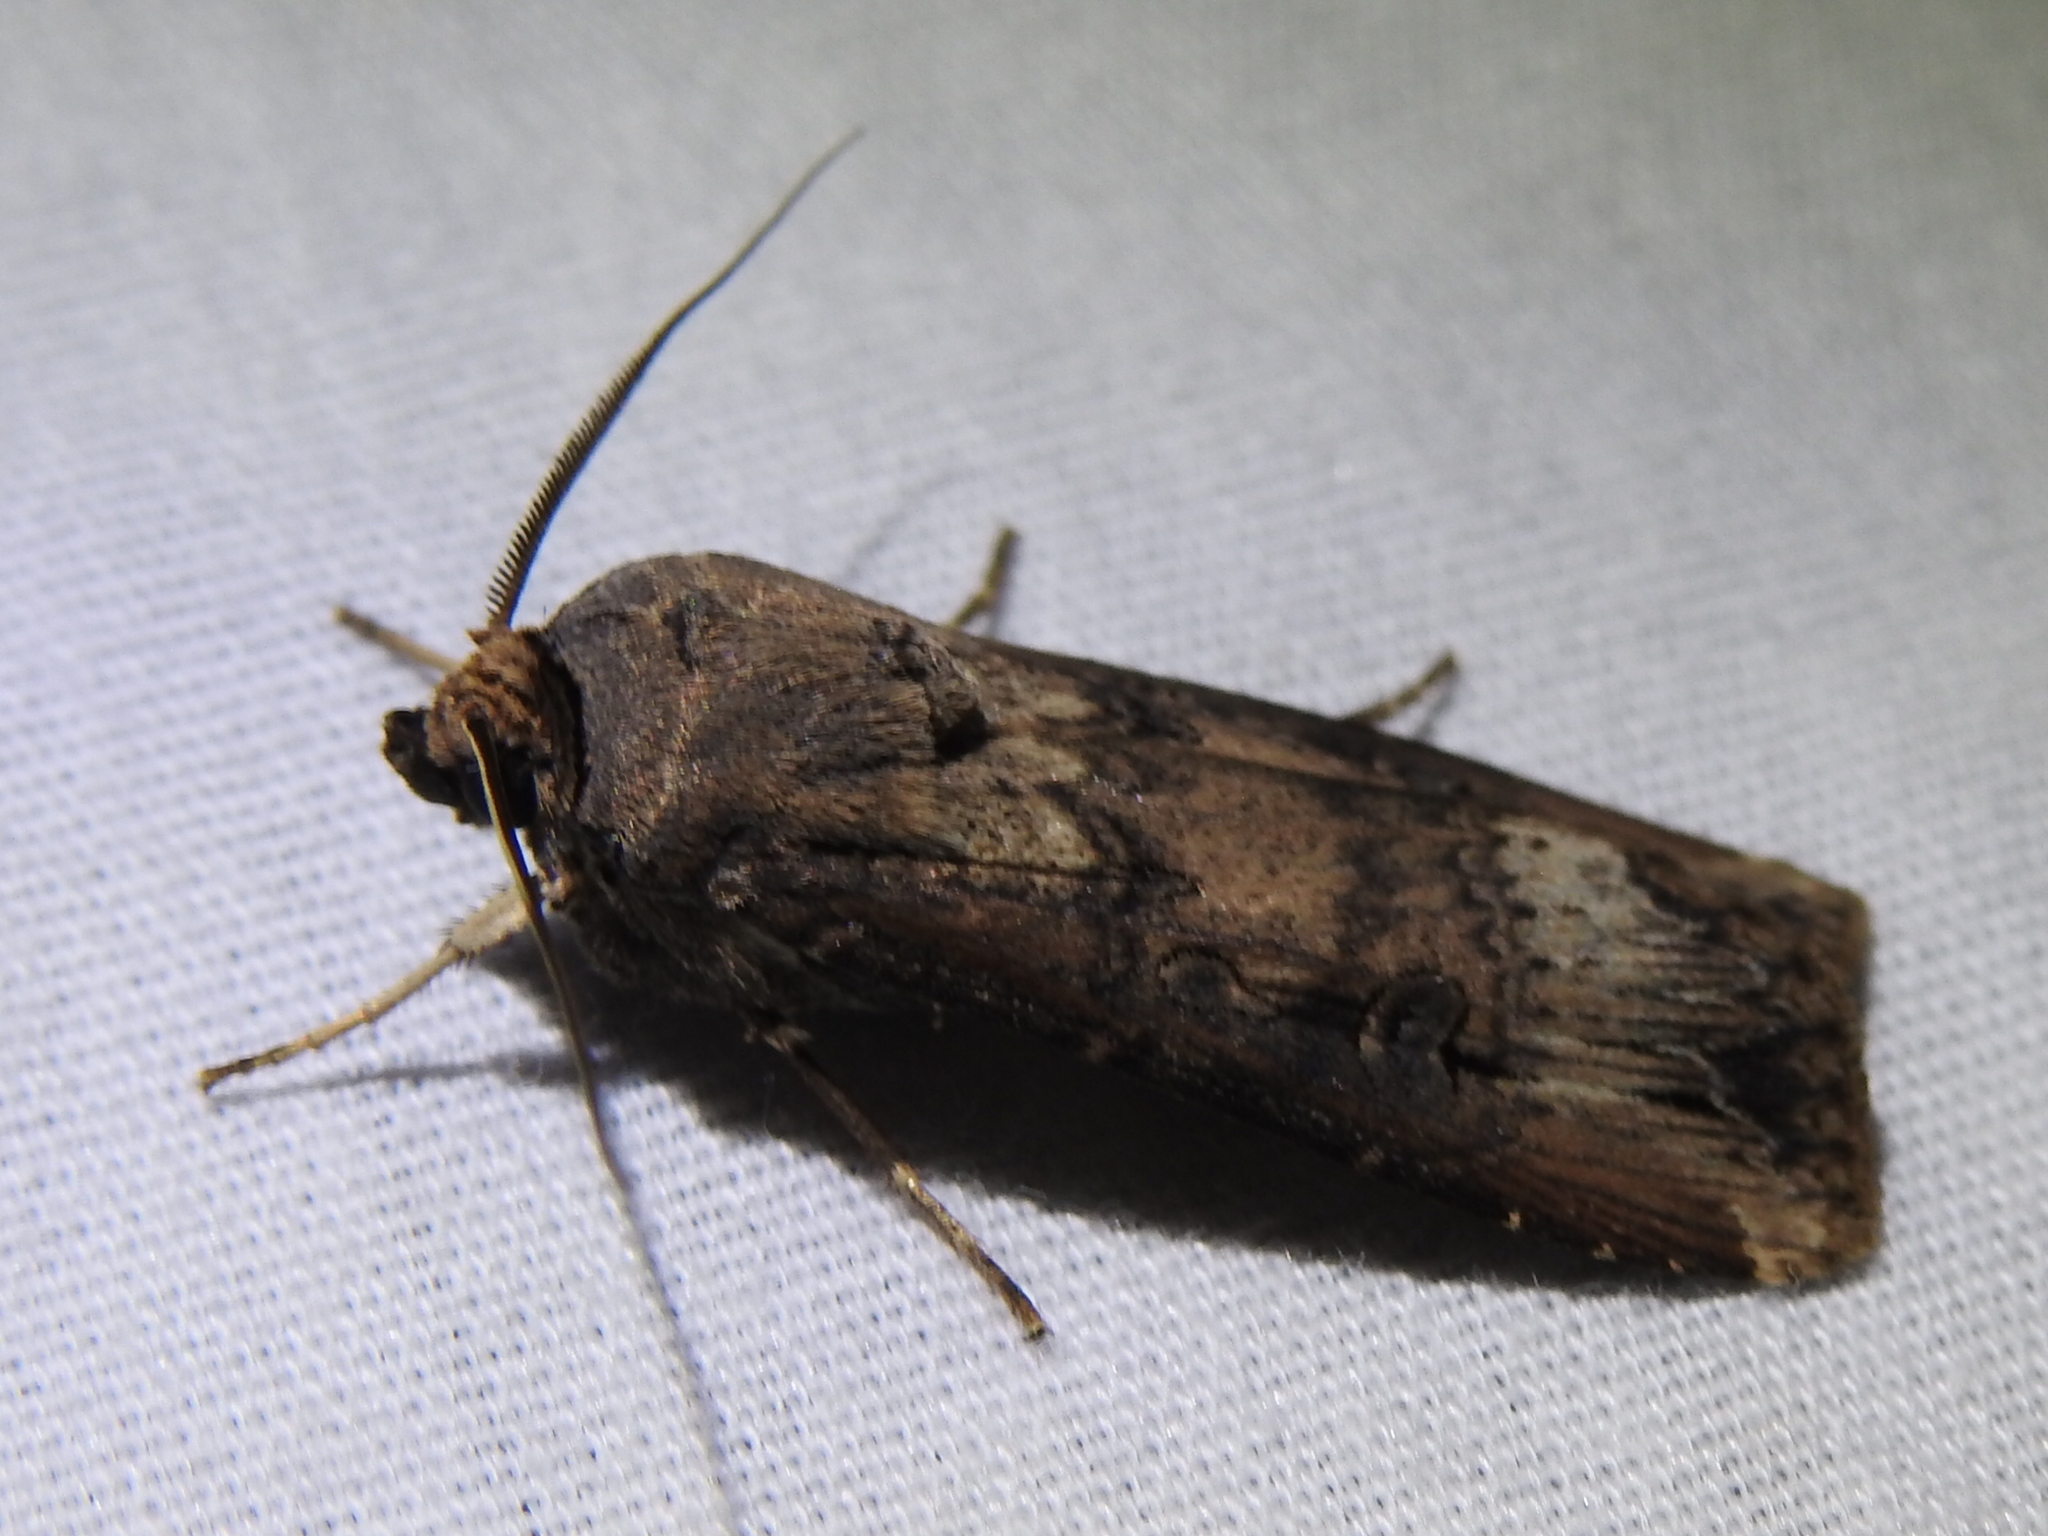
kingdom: Animalia
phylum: Arthropoda
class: Insecta
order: Lepidoptera
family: Noctuidae
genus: Agrotis
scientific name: Agrotis ipsilon
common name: Dark sword-grass
